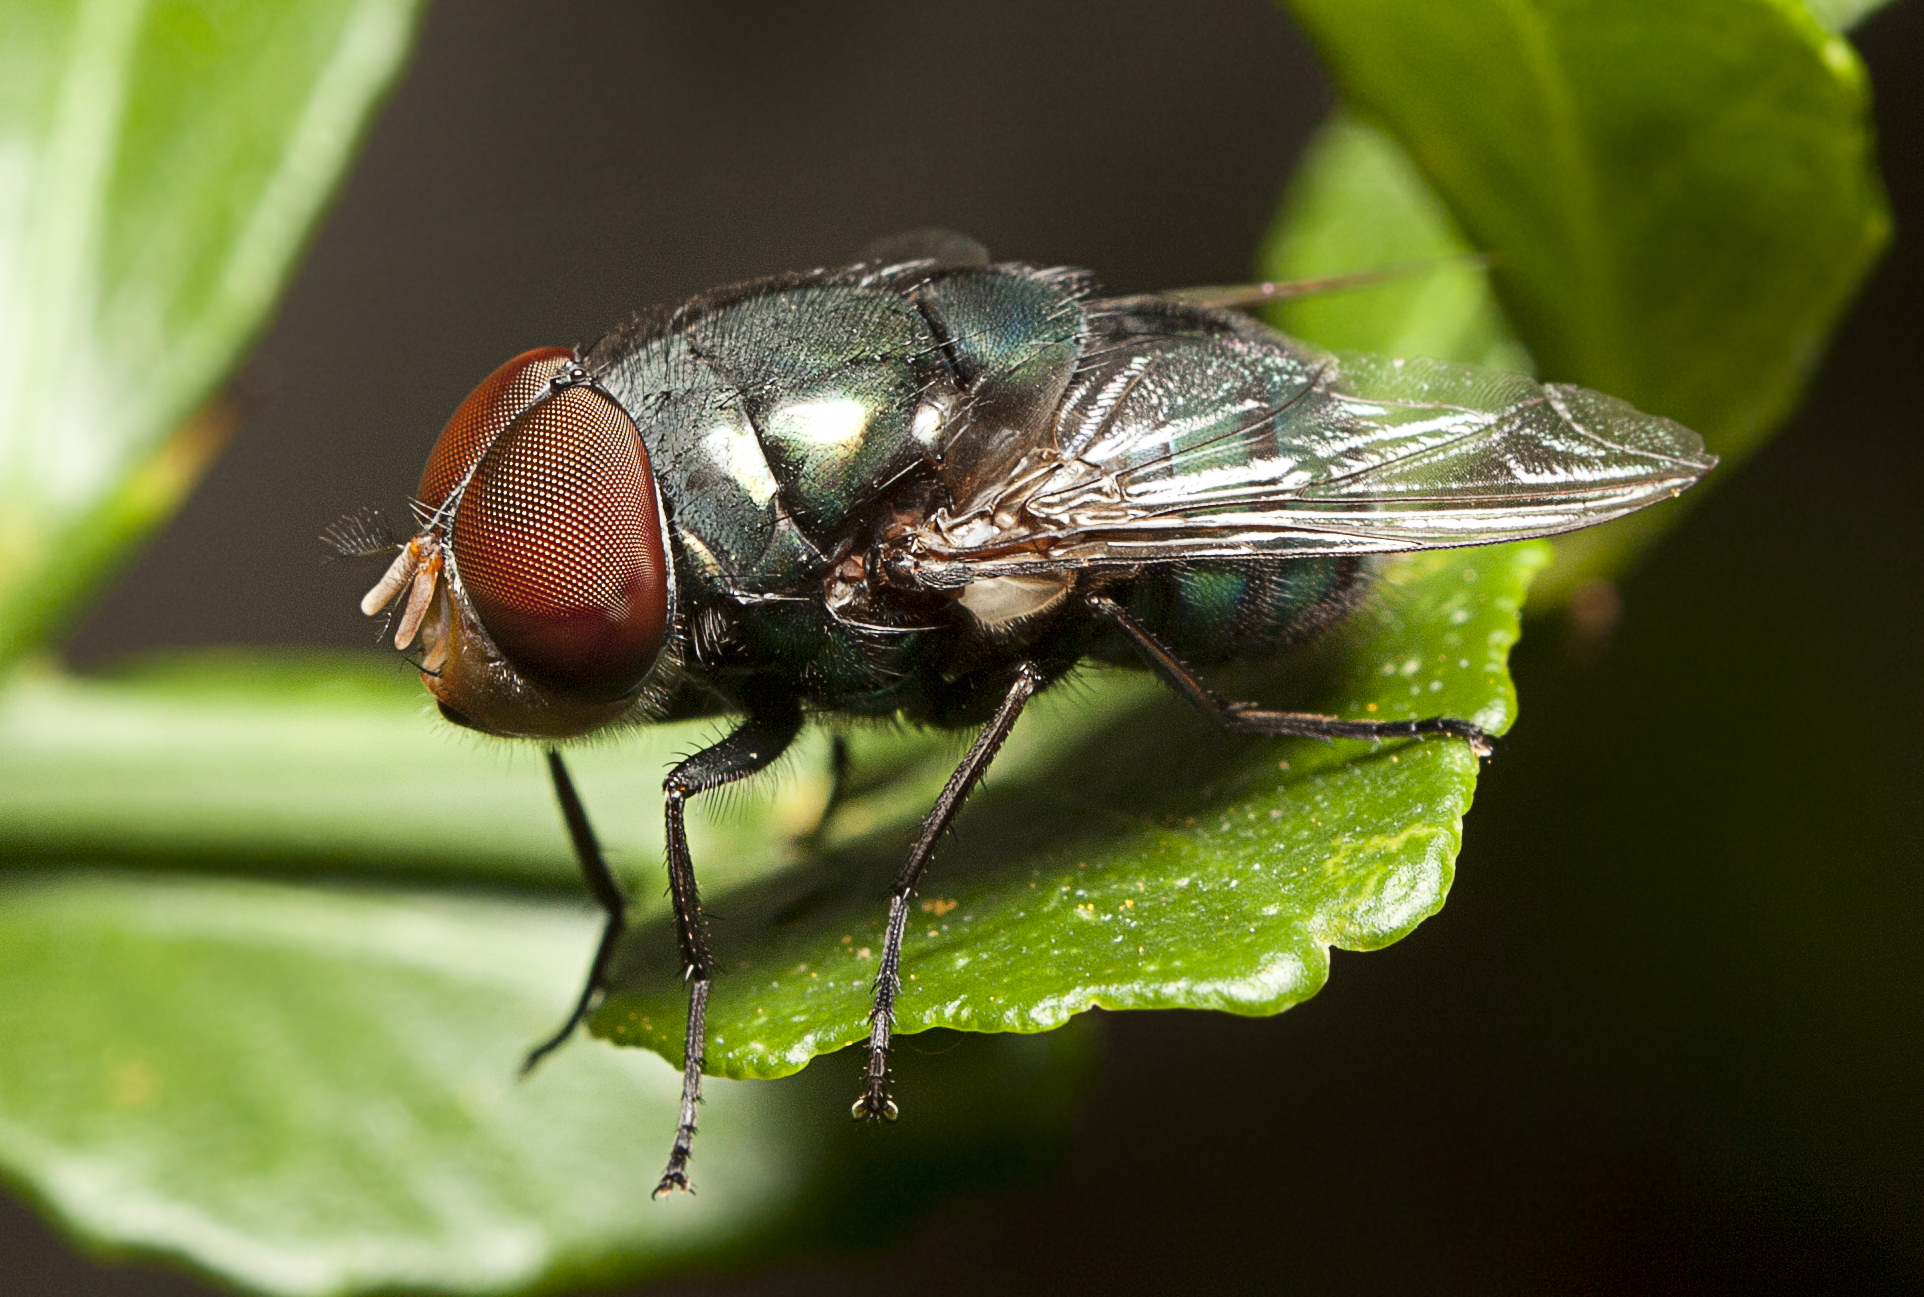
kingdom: Animalia
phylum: Arthropoda
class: Insecta
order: Diptera
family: Calliphoridae
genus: Chrysomya
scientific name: Chrysomya megacephala
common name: Blow fly
